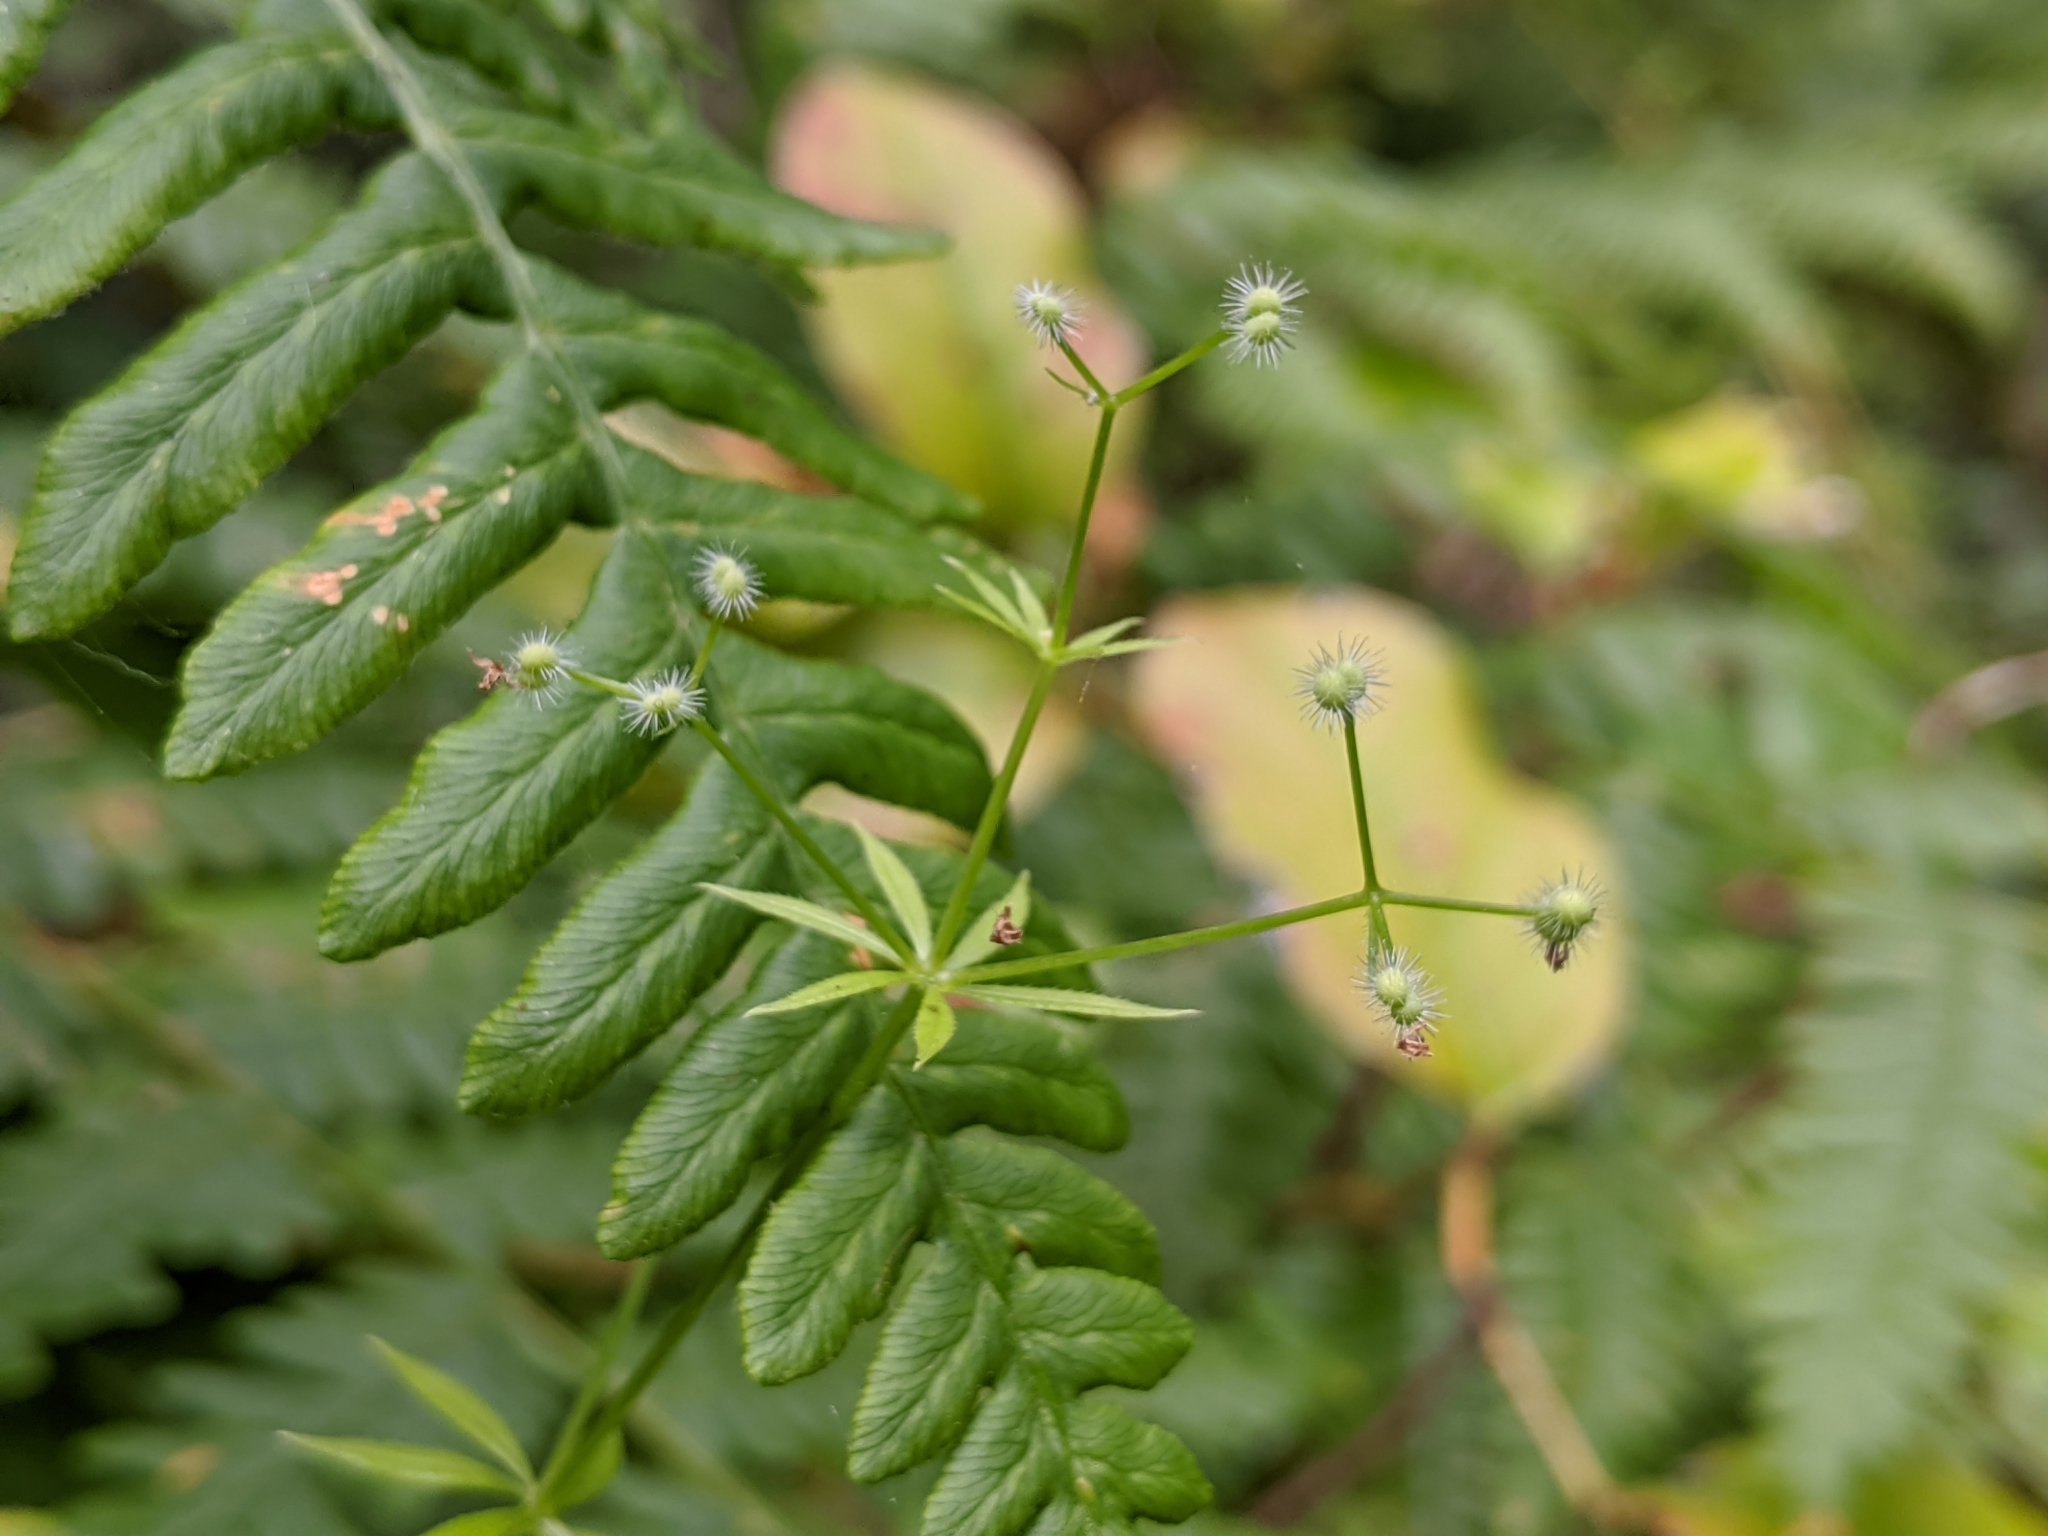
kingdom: Plantae
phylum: Tracheophyta
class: Magnoliopsida
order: Gentianales
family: Rubiaceae
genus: Galium
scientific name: Galium triflorum
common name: Fragrant bedstraw
